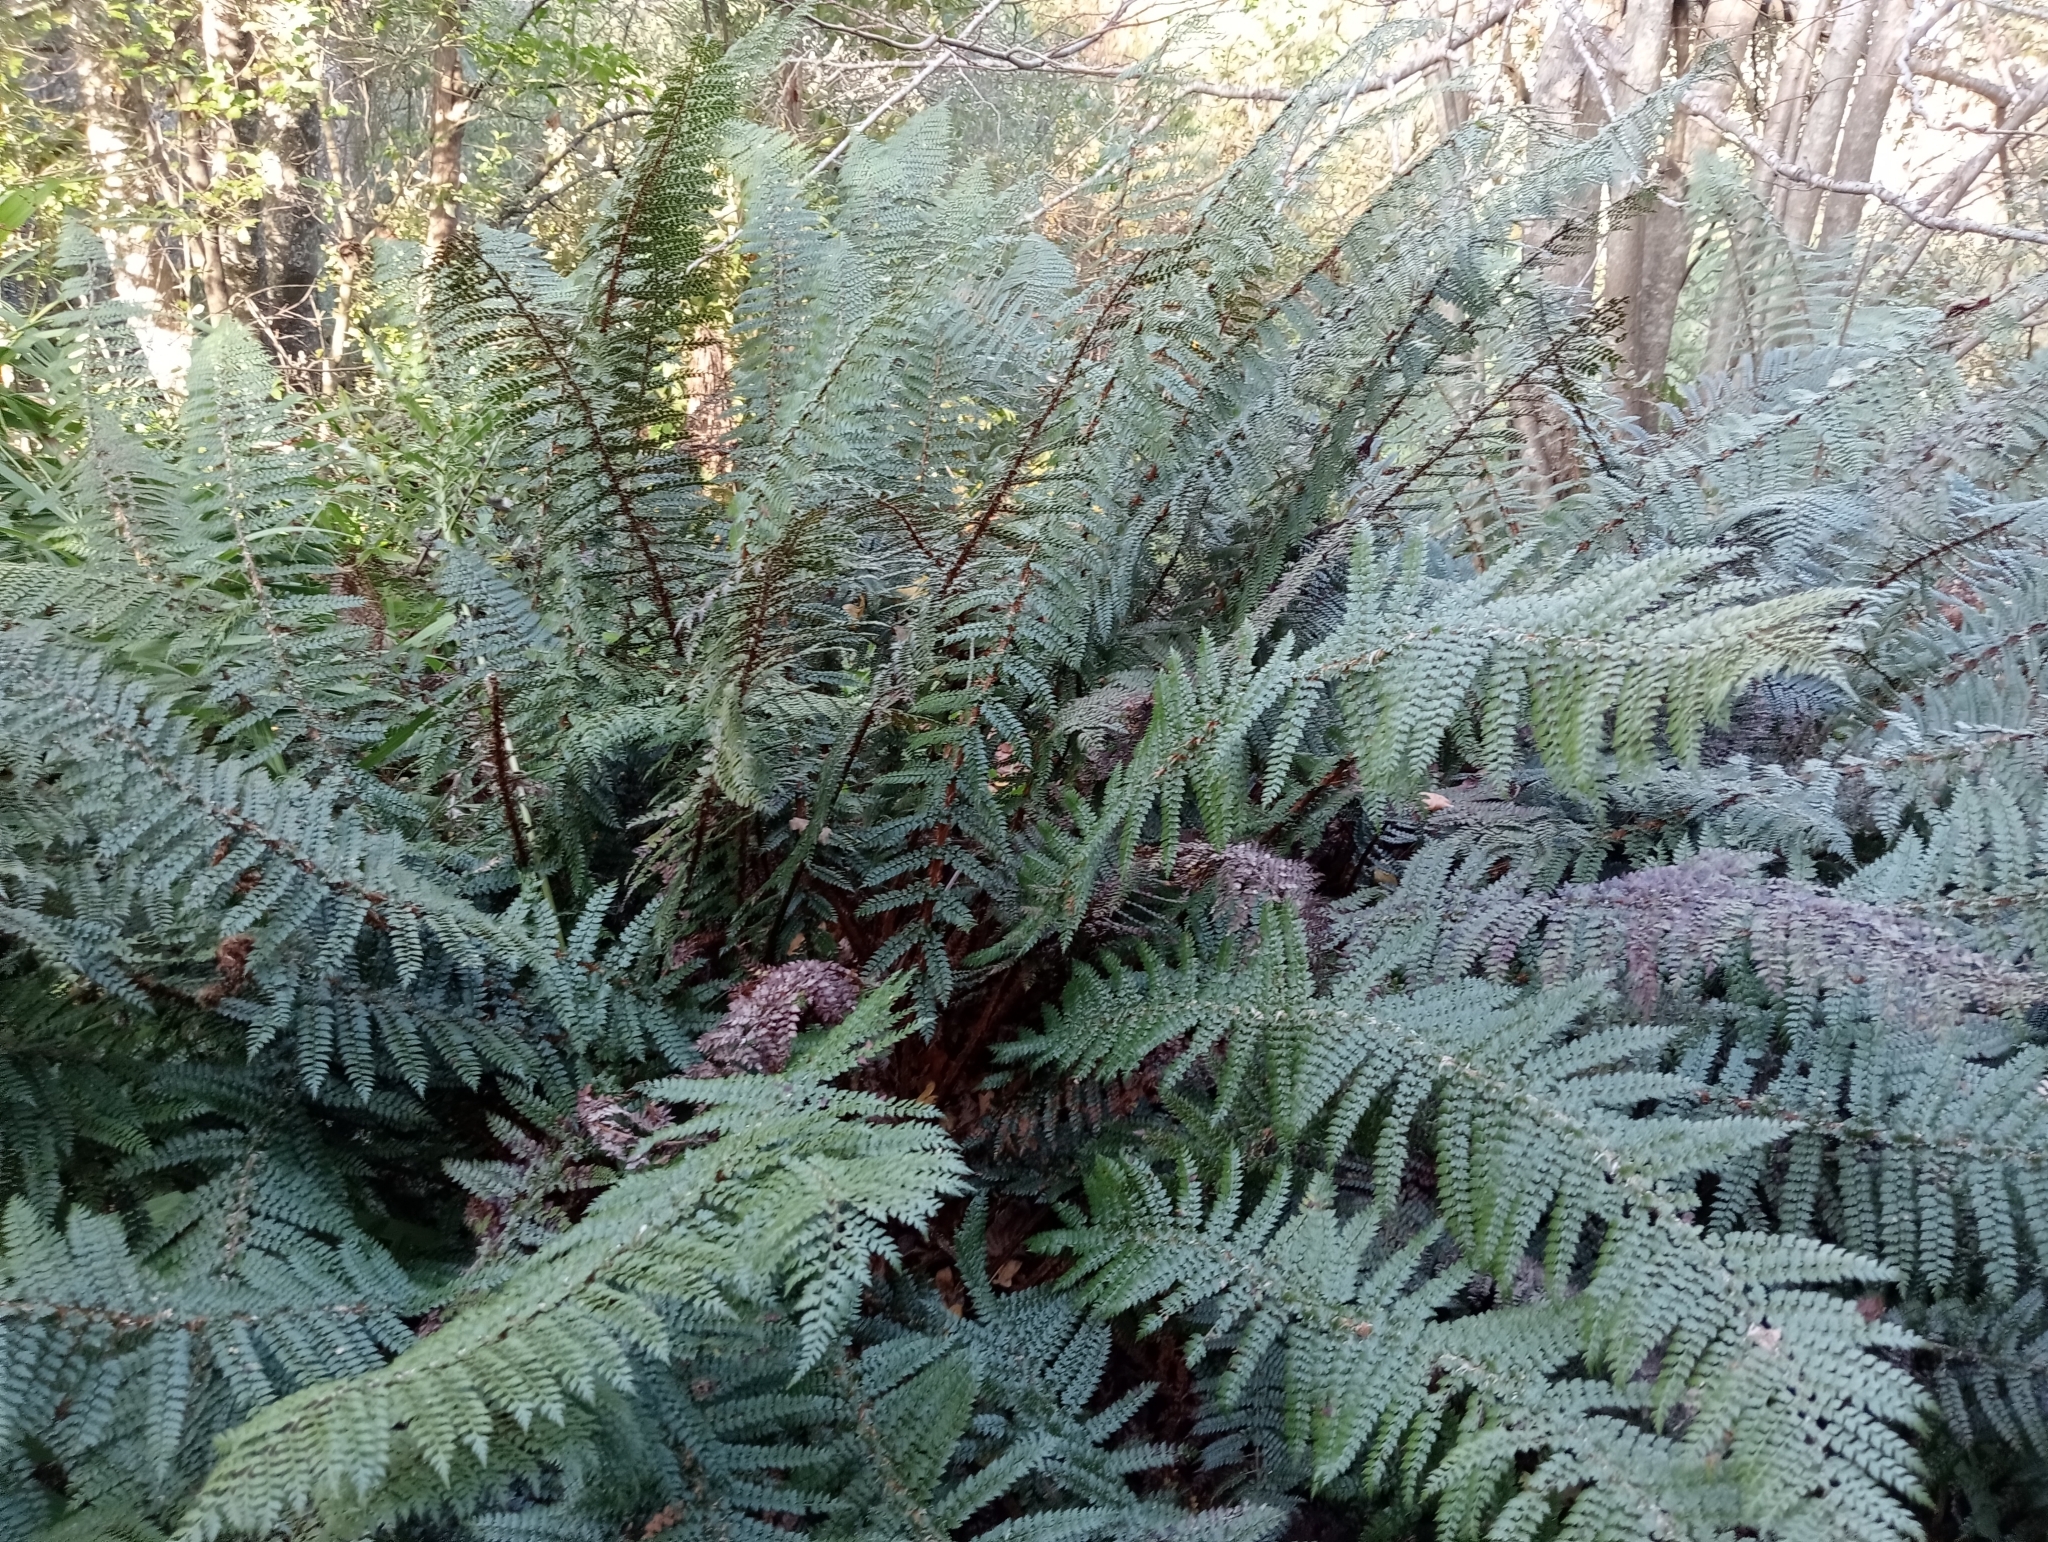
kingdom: Plantae
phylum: Tracheophyta
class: Polypodiopsida
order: Polypodiales
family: Dryopteridaceae
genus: Polystichum
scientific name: Polystichum vestitum
